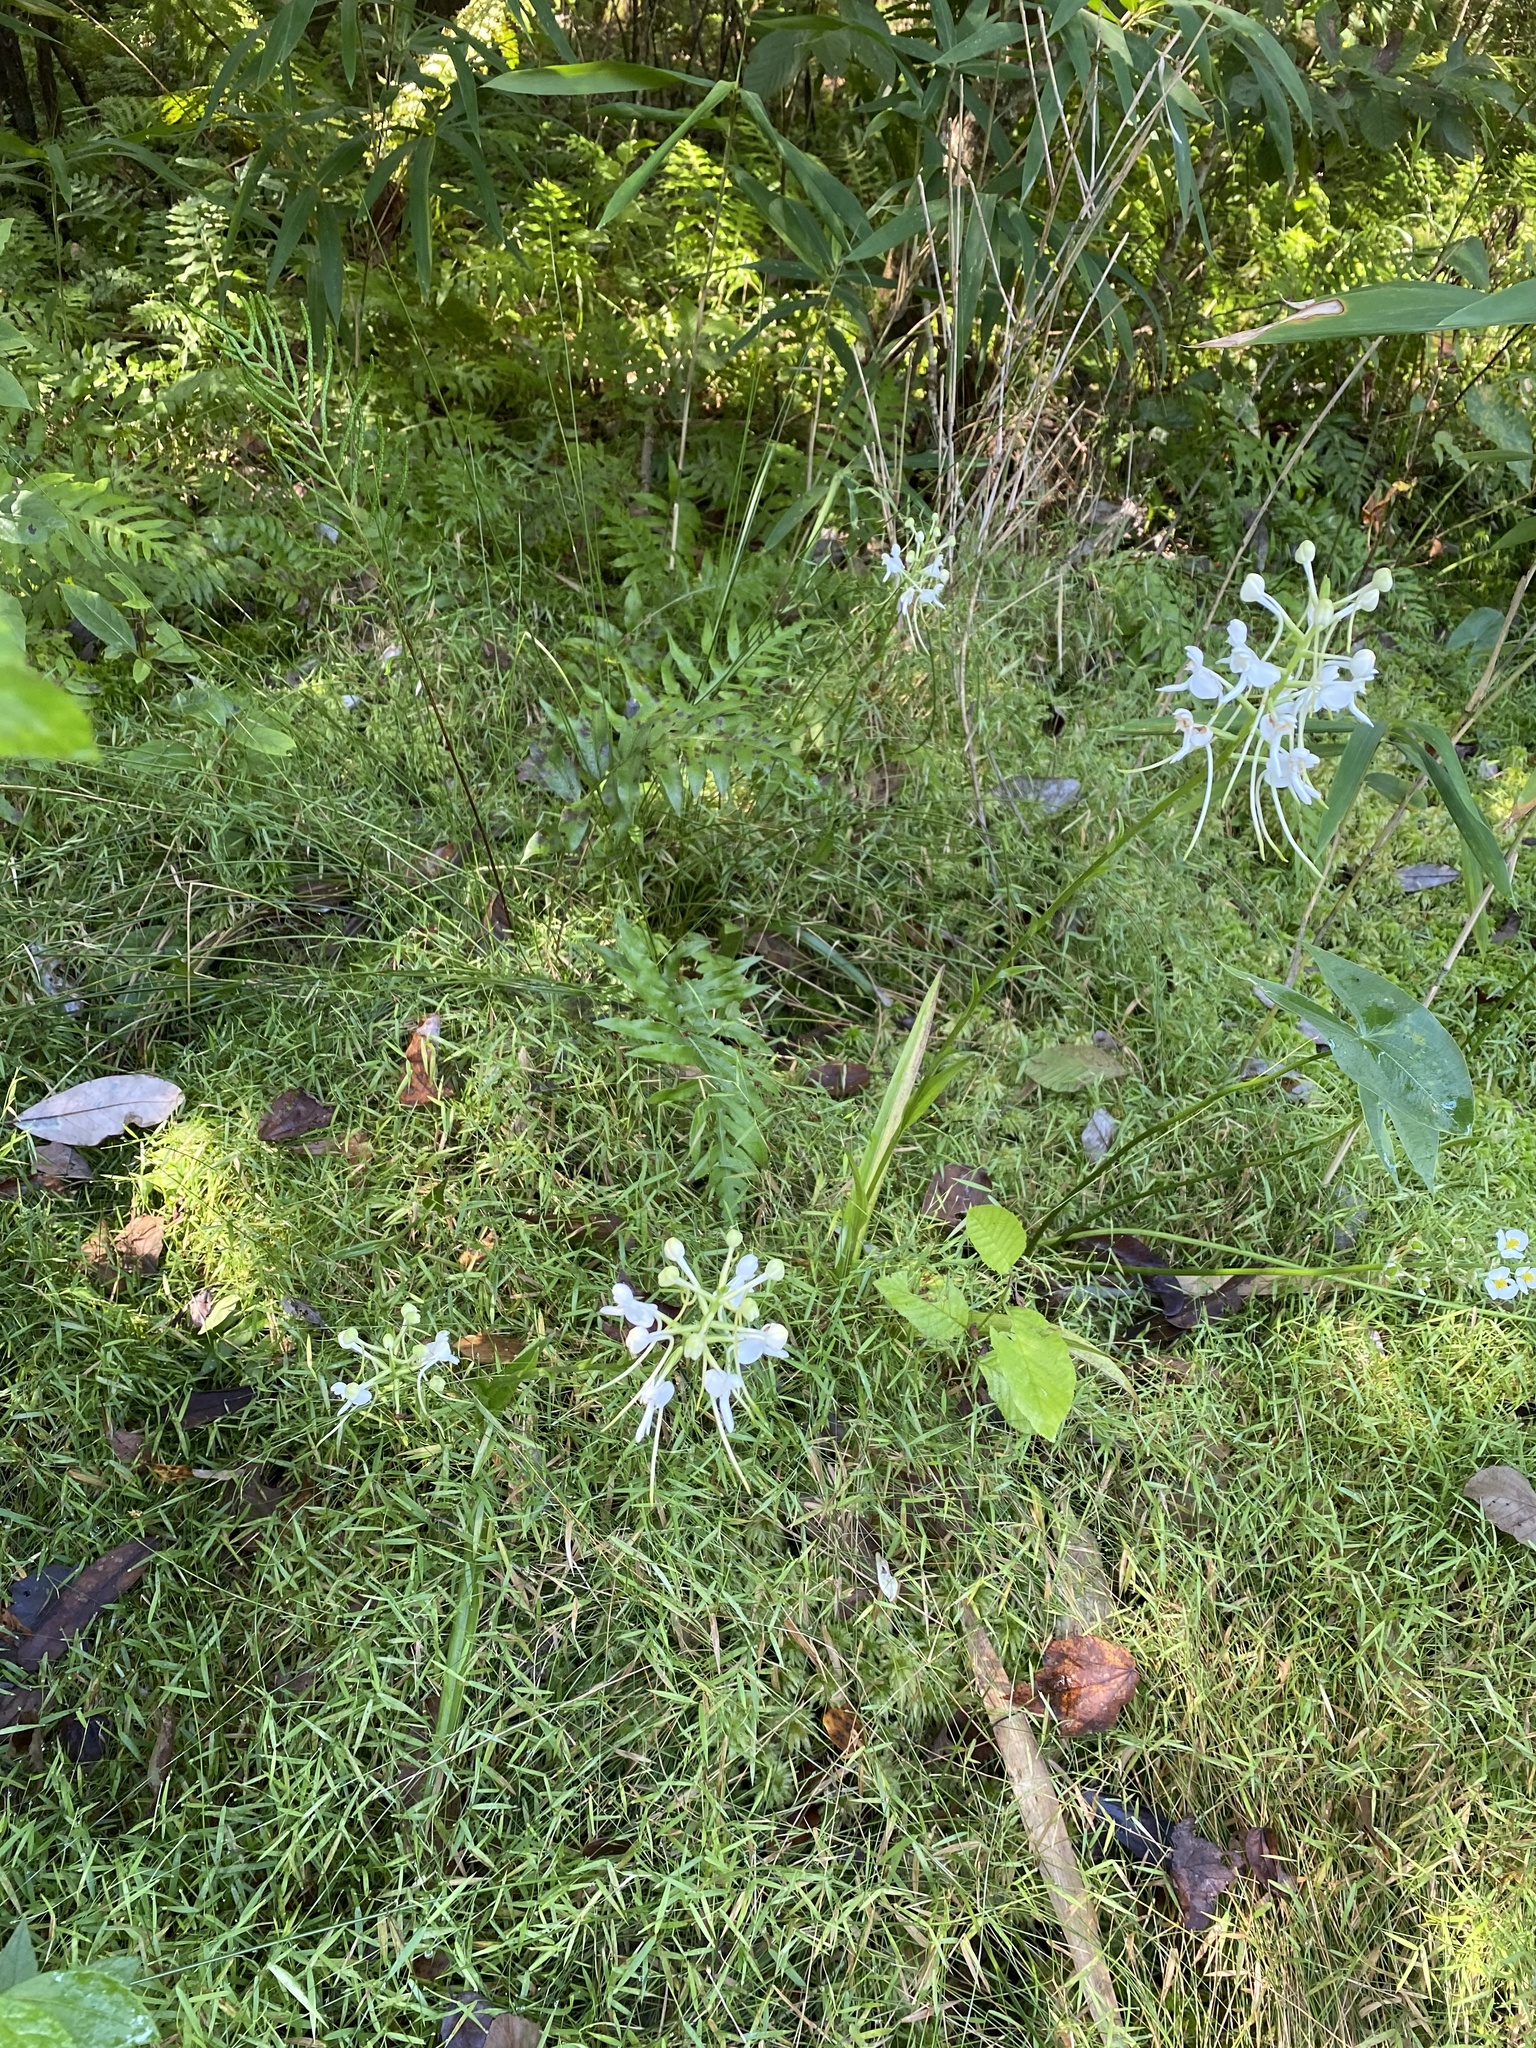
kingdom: Plantae
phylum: Tracheophyta
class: Liliopsida
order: Asparagales
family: Orchidaceae
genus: Platanthera
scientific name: Platanthera integrilabia
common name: White fringeless orchid
